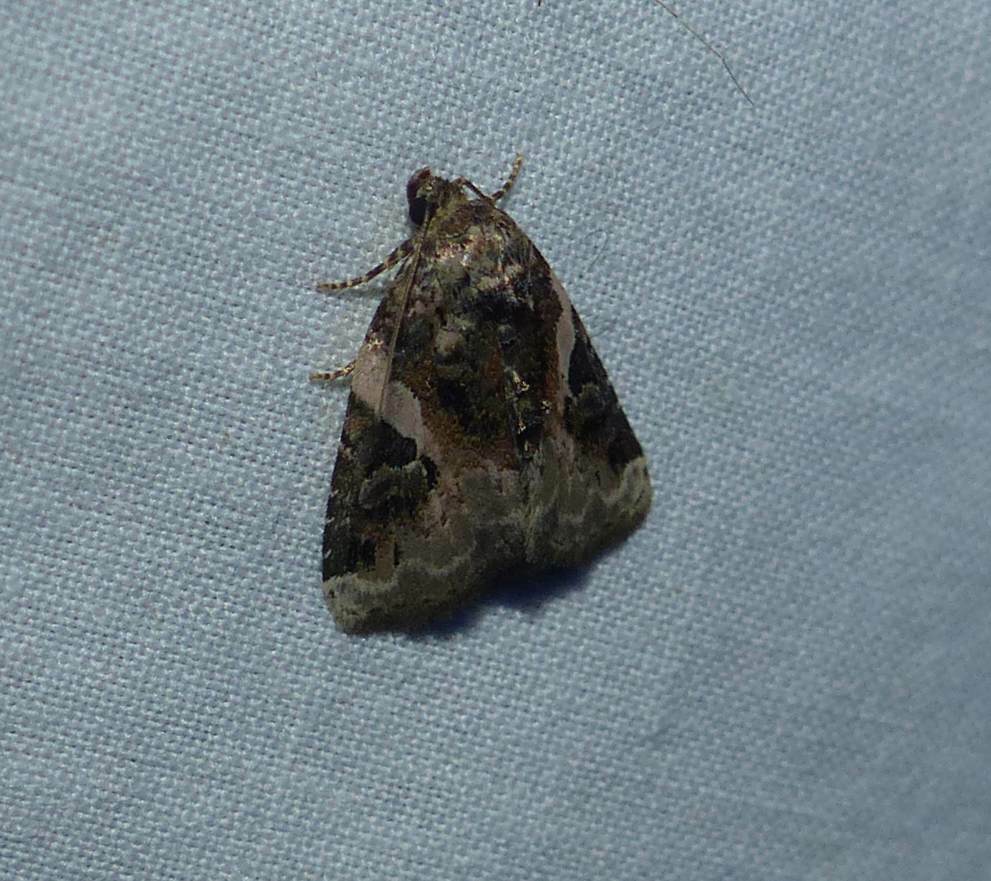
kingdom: Animalia
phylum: Arthropoda
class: Insecta
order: Lepidoptera
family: Noctuidae
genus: Pseudeustrotia
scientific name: Pseudeustrotia carneola
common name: Pink-barred lithacodia moth
